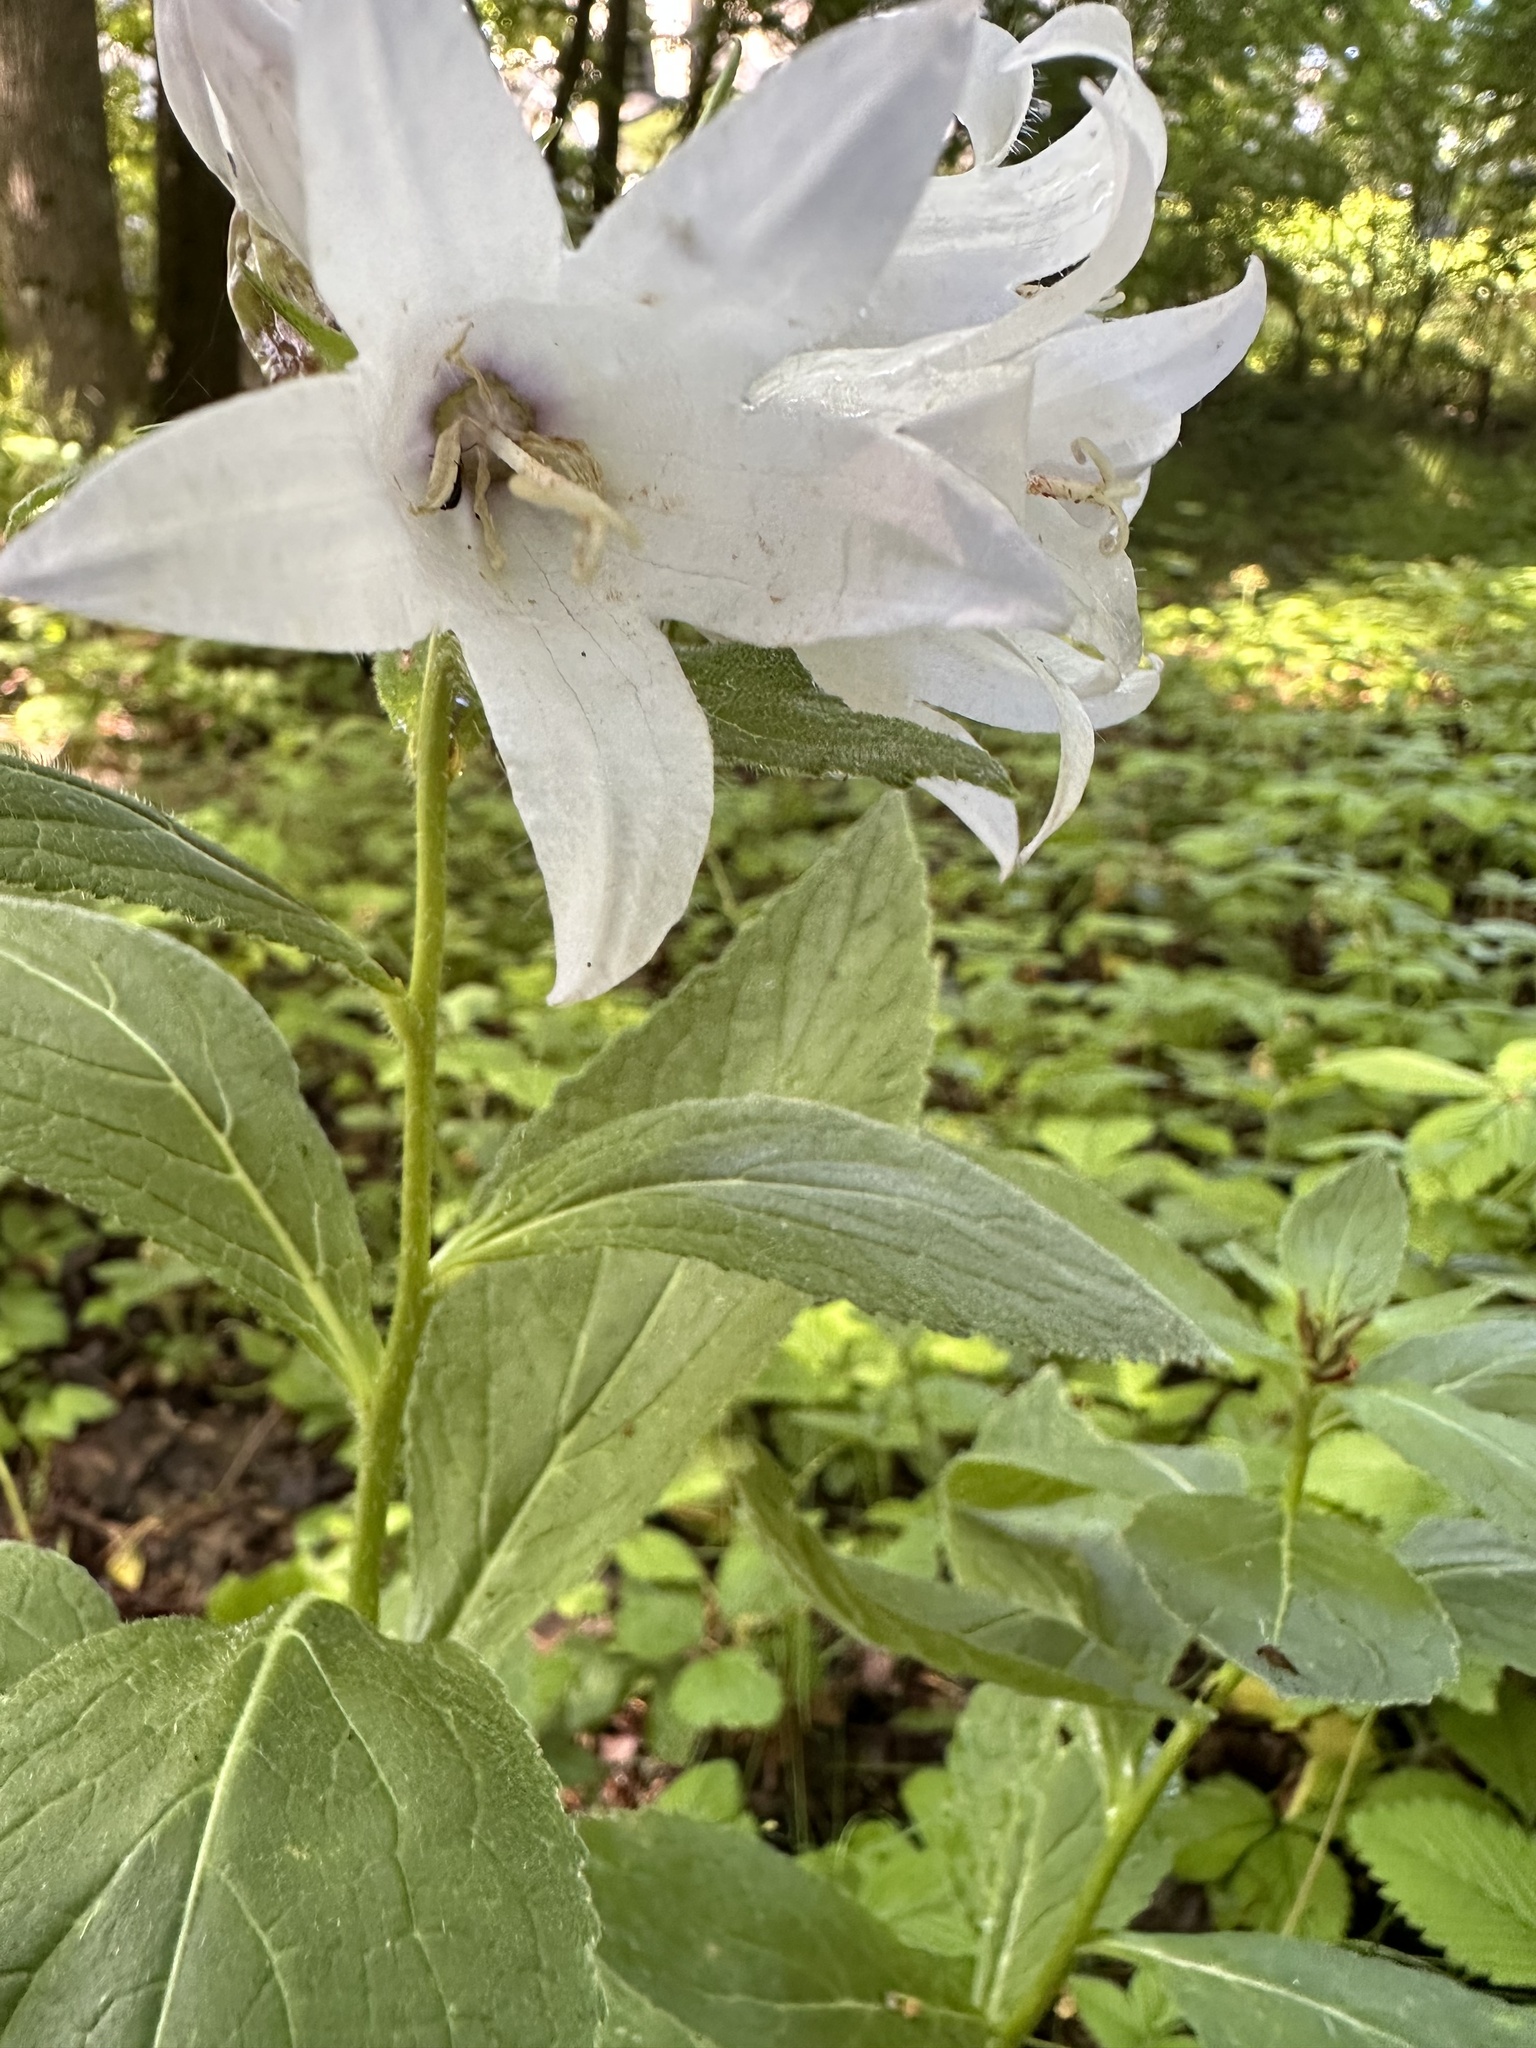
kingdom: Plantae
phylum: Tracheophyta
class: Magnoliopsida
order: Asterales
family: Campanulaceae
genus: Campanula
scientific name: Campanula latifolia
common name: Giant bellflower
